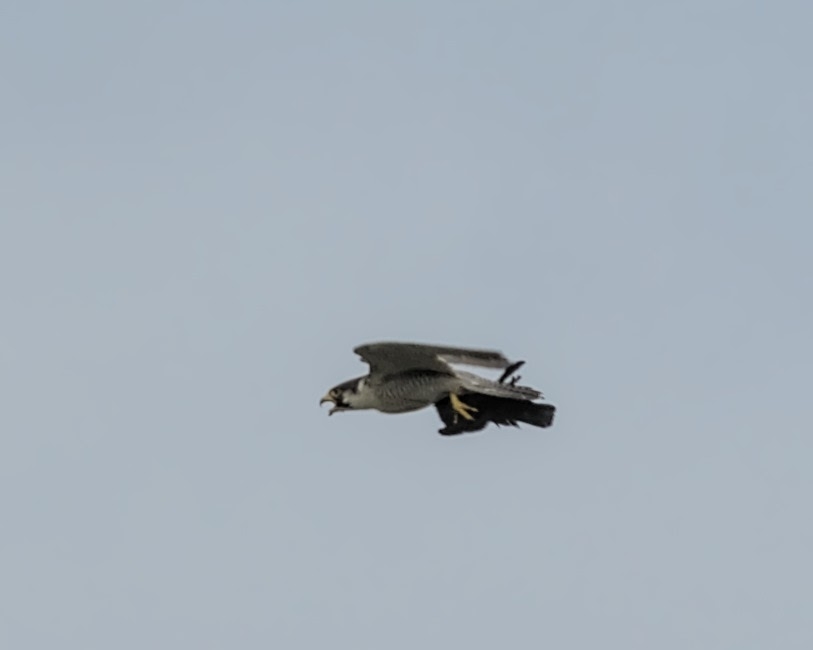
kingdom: Animalia
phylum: Chordata
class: Aves
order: Falconiformes
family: Falconidae
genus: Falco
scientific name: Falco peregrinus
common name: Peregrine falcon
